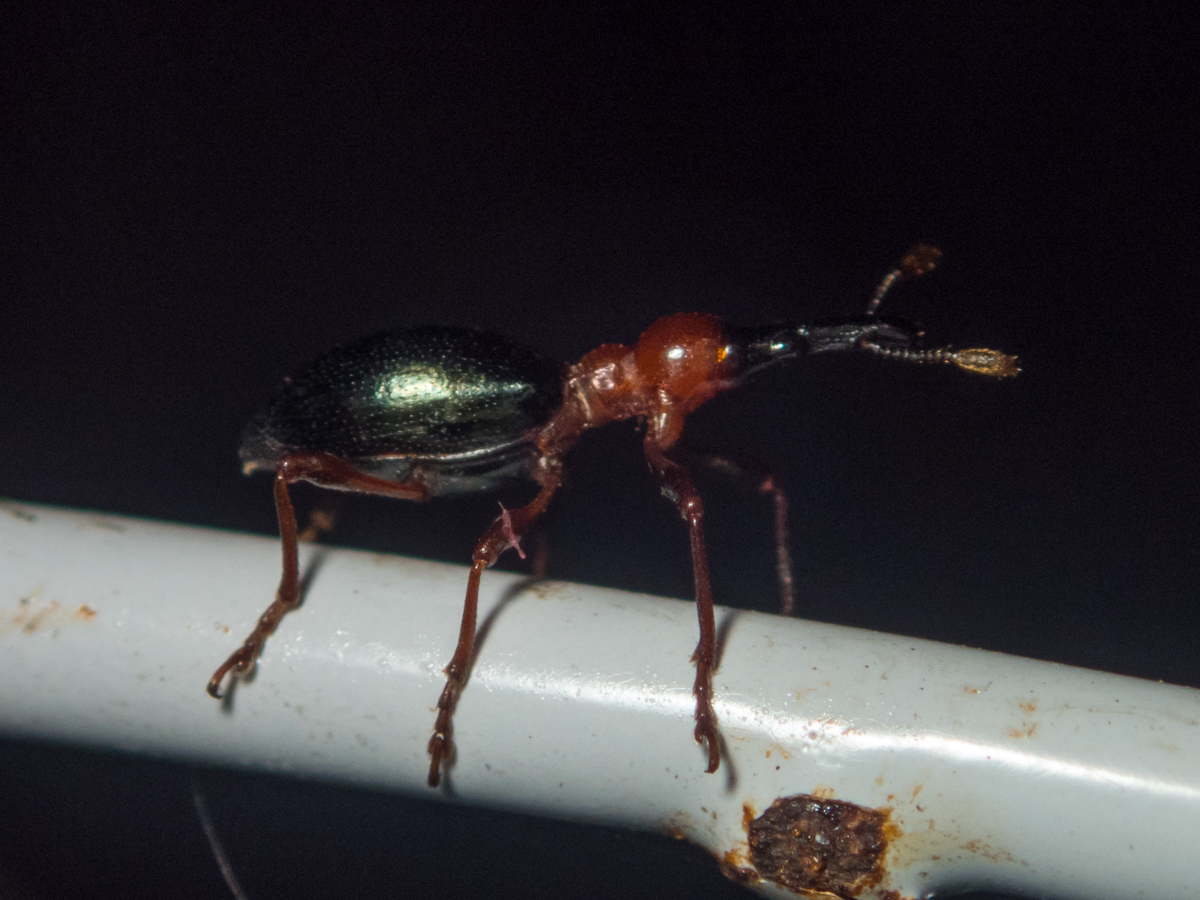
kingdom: Animalia
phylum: Arthropoda
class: Insecta
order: Coleoptera
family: Brentidae
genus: Cylas
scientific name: Cylas formicarius
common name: Sweetpotato weevil
